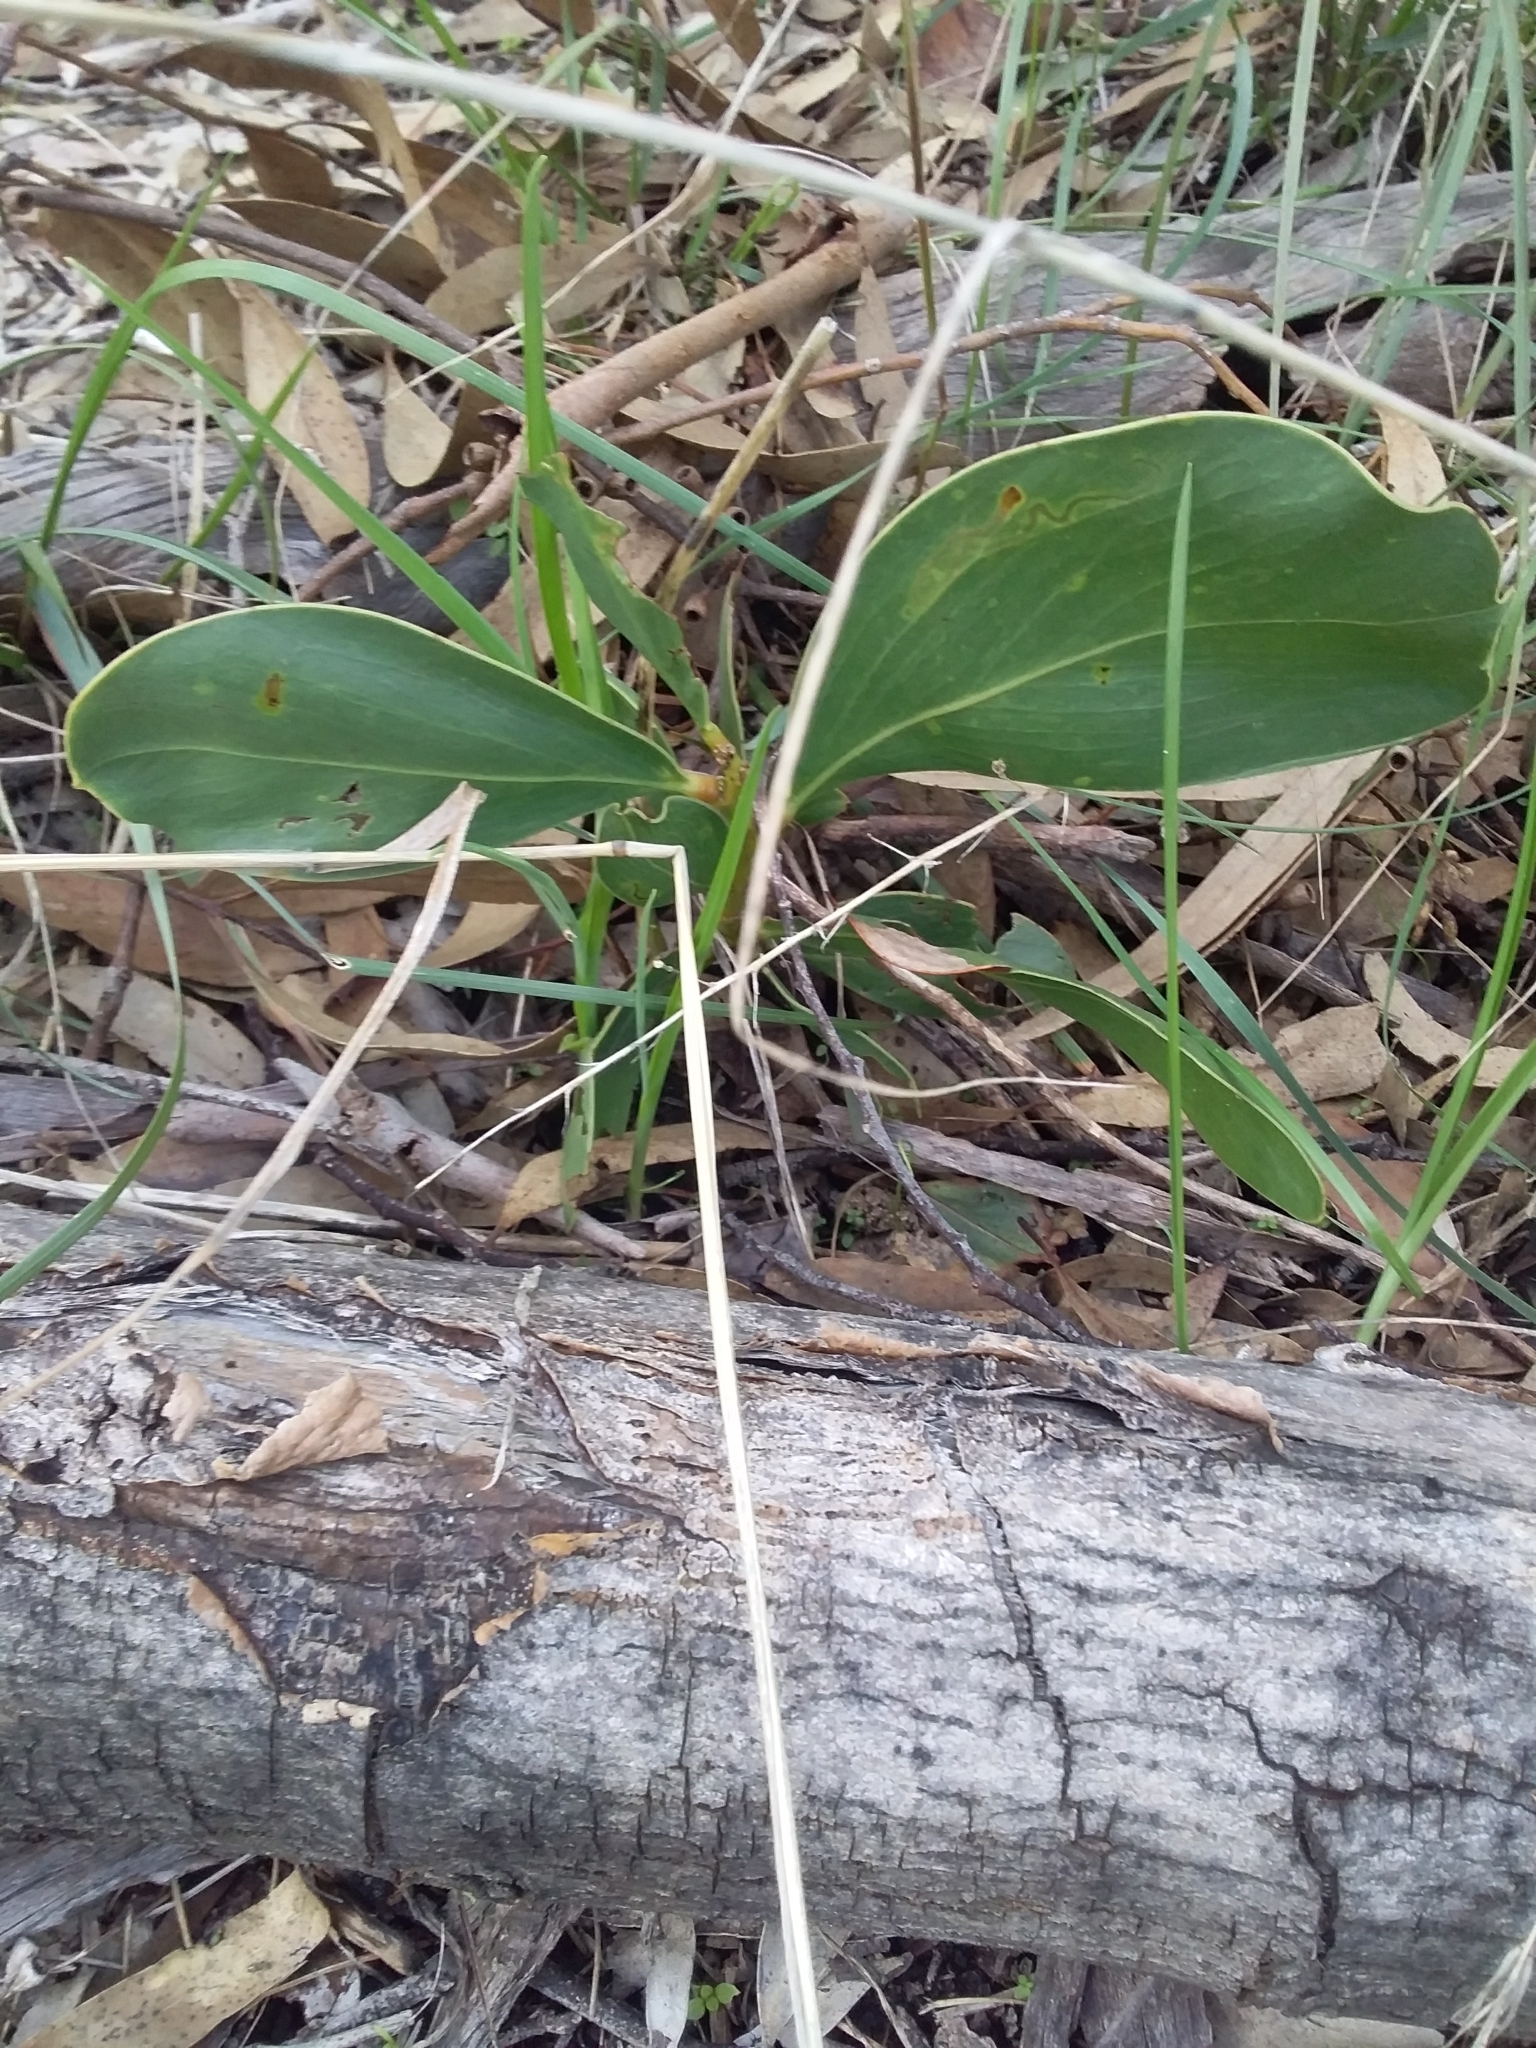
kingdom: Plantae
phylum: Tracheophyta
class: Magnoliopsida
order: Fabales
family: Fabaceae
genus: Acacia
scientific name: Acacia pycnantha
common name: Golden wattle
